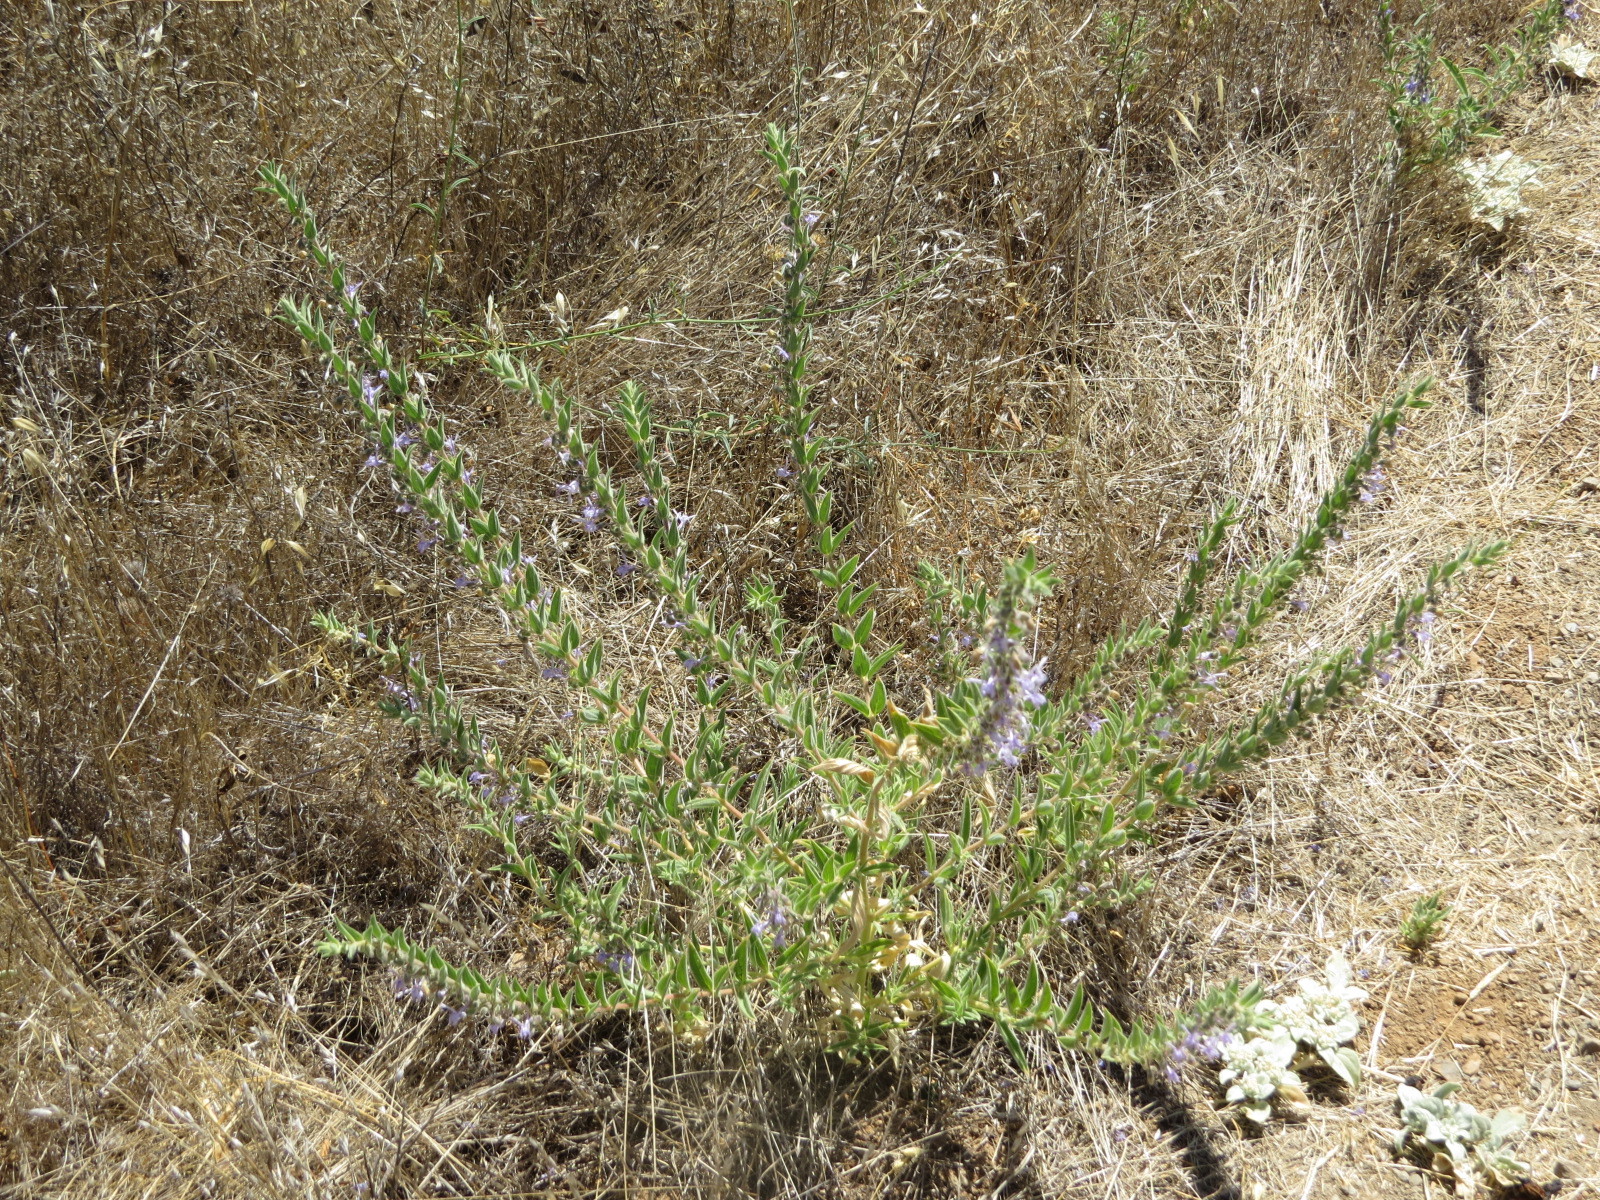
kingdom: Plantae
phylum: Tracheophyta
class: Magnoliopsida
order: Lamiales
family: Lamiaceae
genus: Trichostema
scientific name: Trichostema lanceolatum
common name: Vinegar-weed
